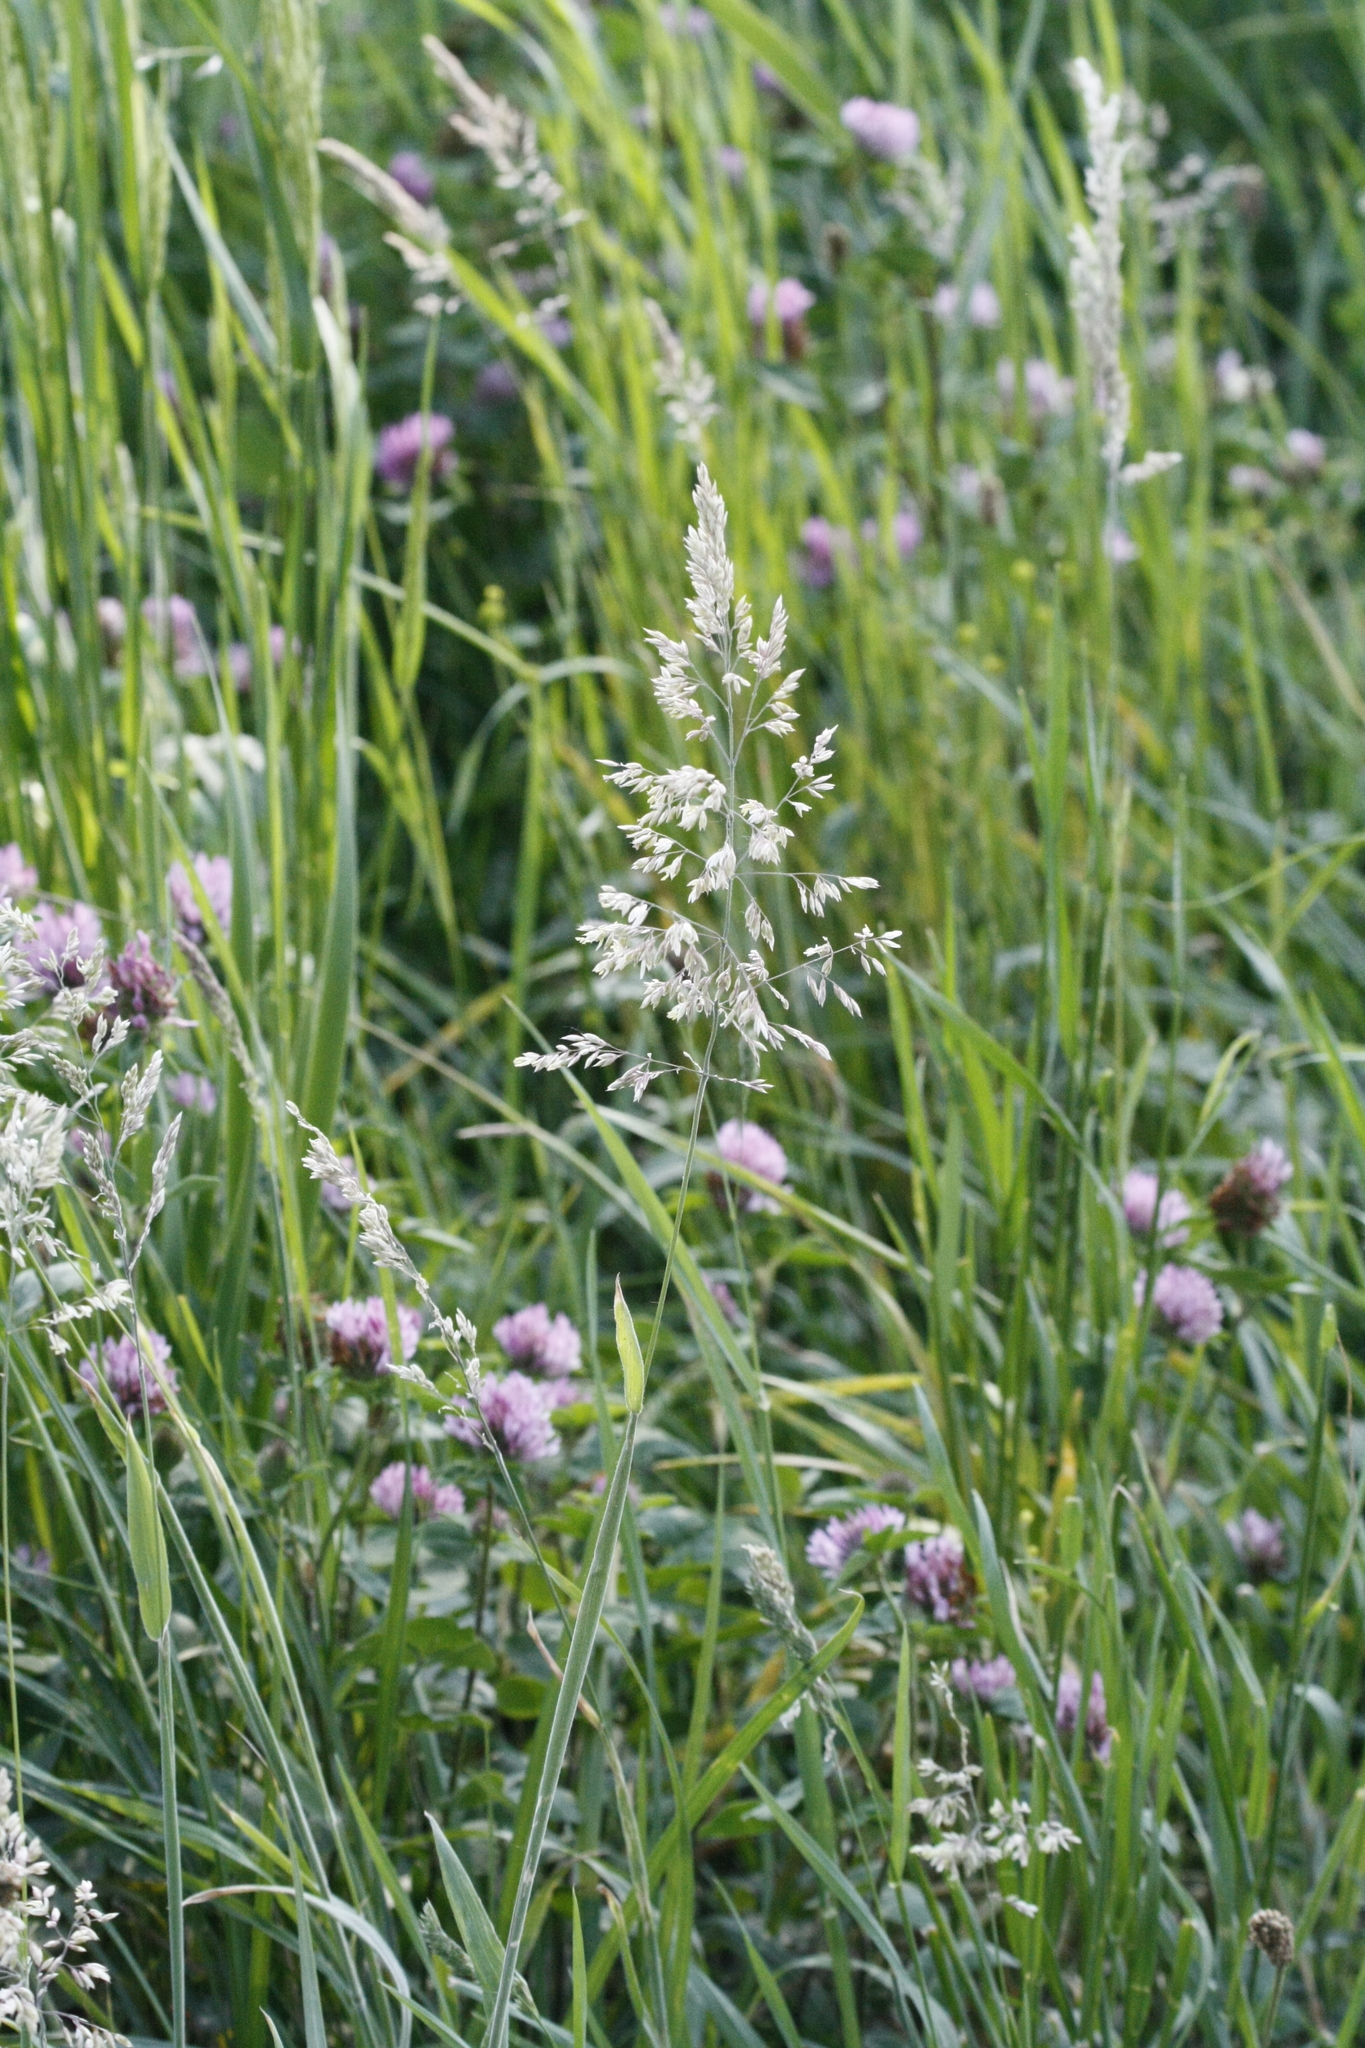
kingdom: Plantae
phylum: Tracheophyta
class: Liliopsida
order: Poales
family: Poaceae
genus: Holcus
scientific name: Holcus lanatus
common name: Yorkshire-fog
